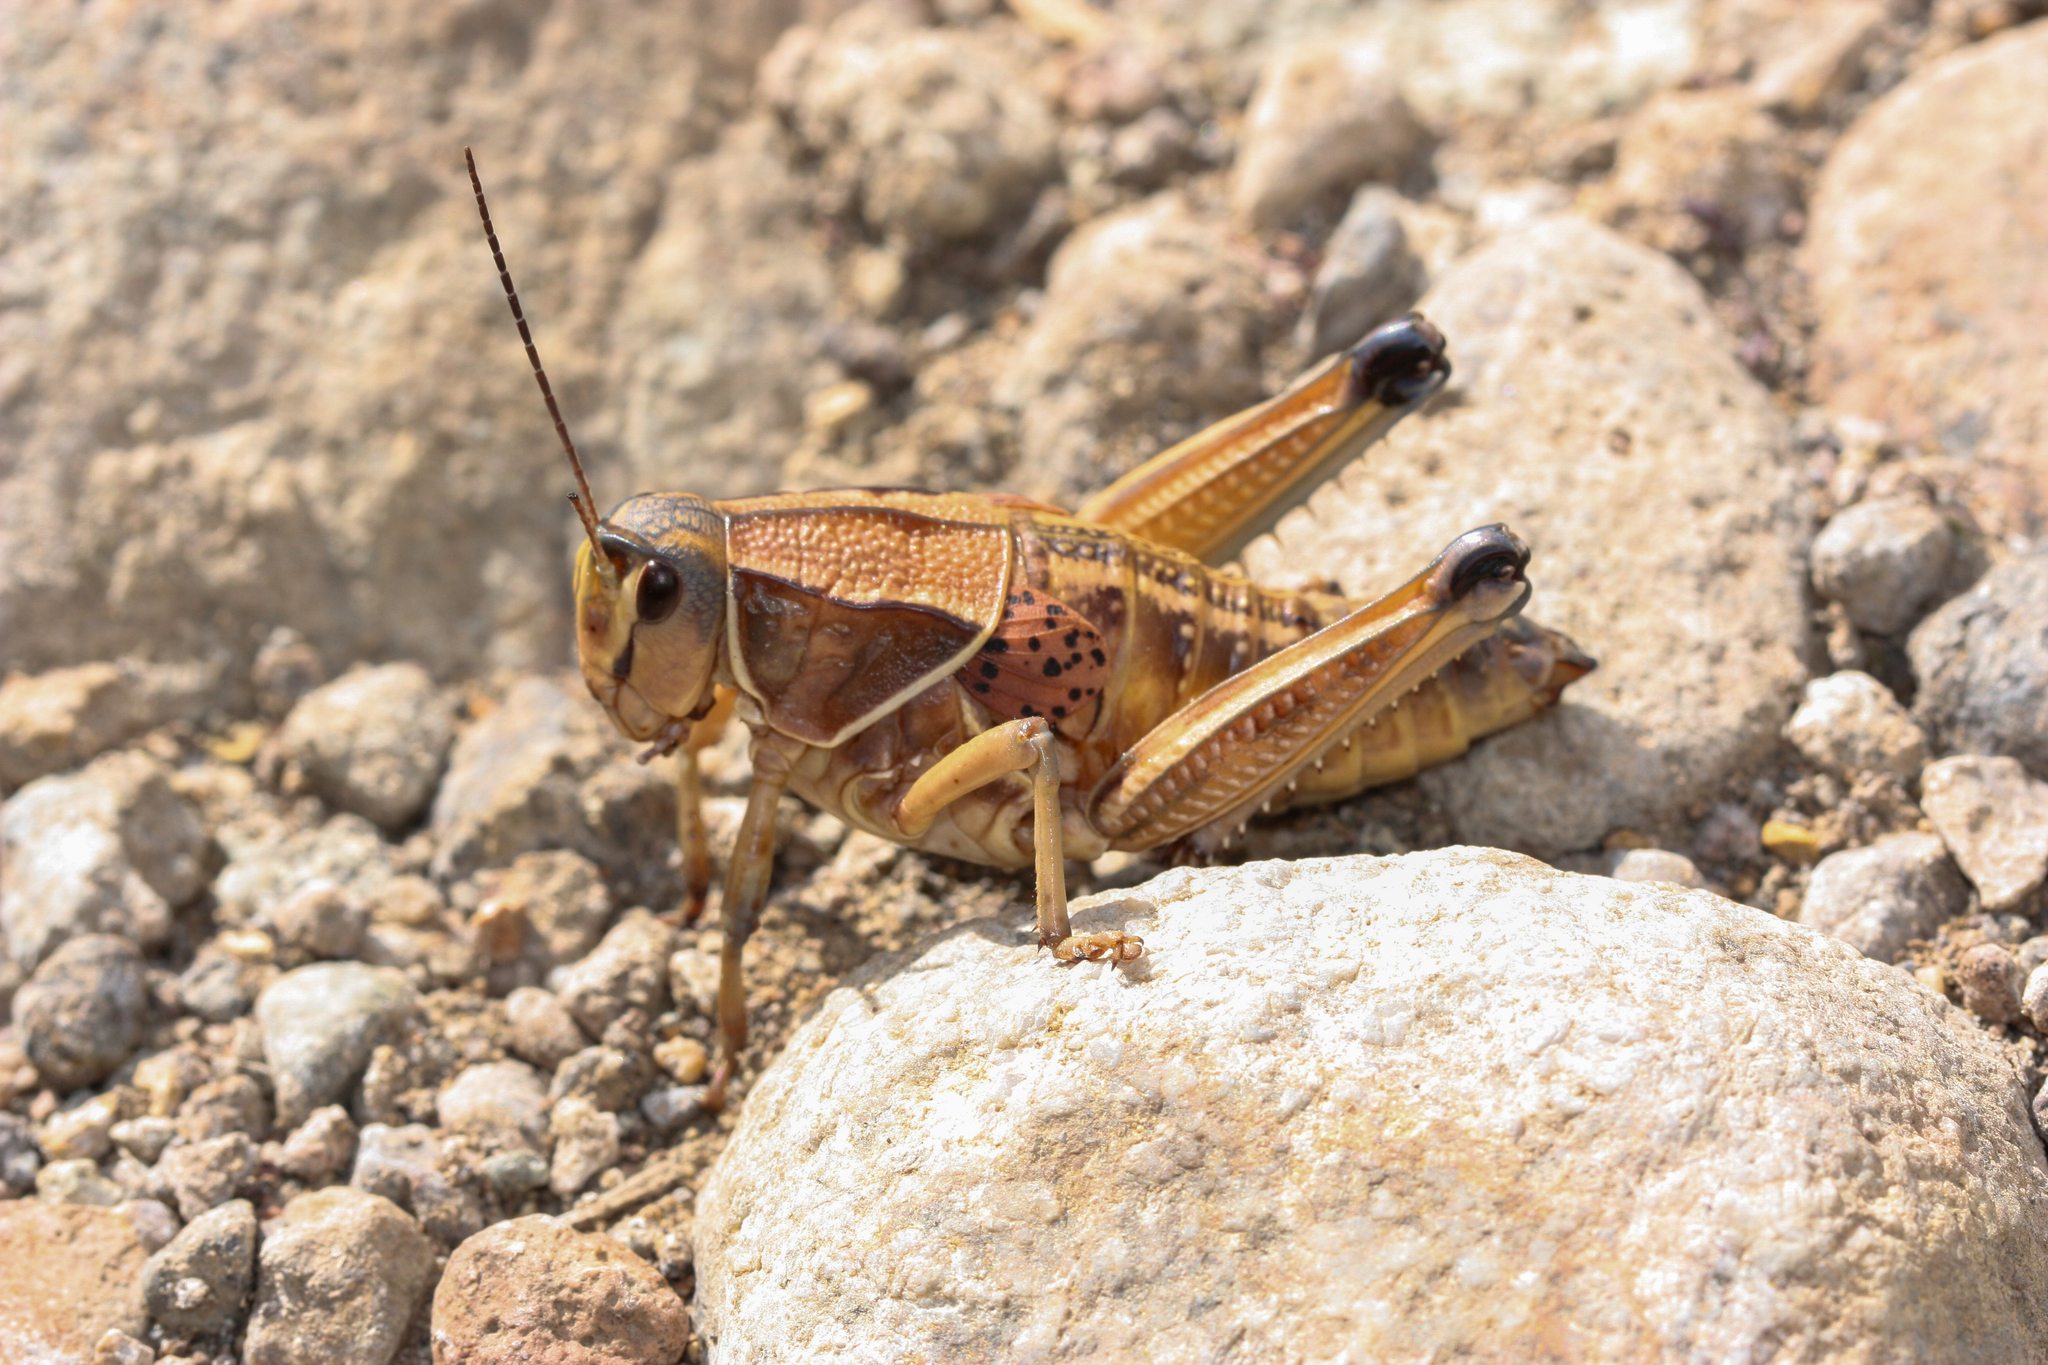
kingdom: Animalia
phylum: Arthropoda
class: Insecta
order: Orthoptera
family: Romaleidae
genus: Brachystola
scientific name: Brachystola magna
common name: Plains lubber grasshopper
